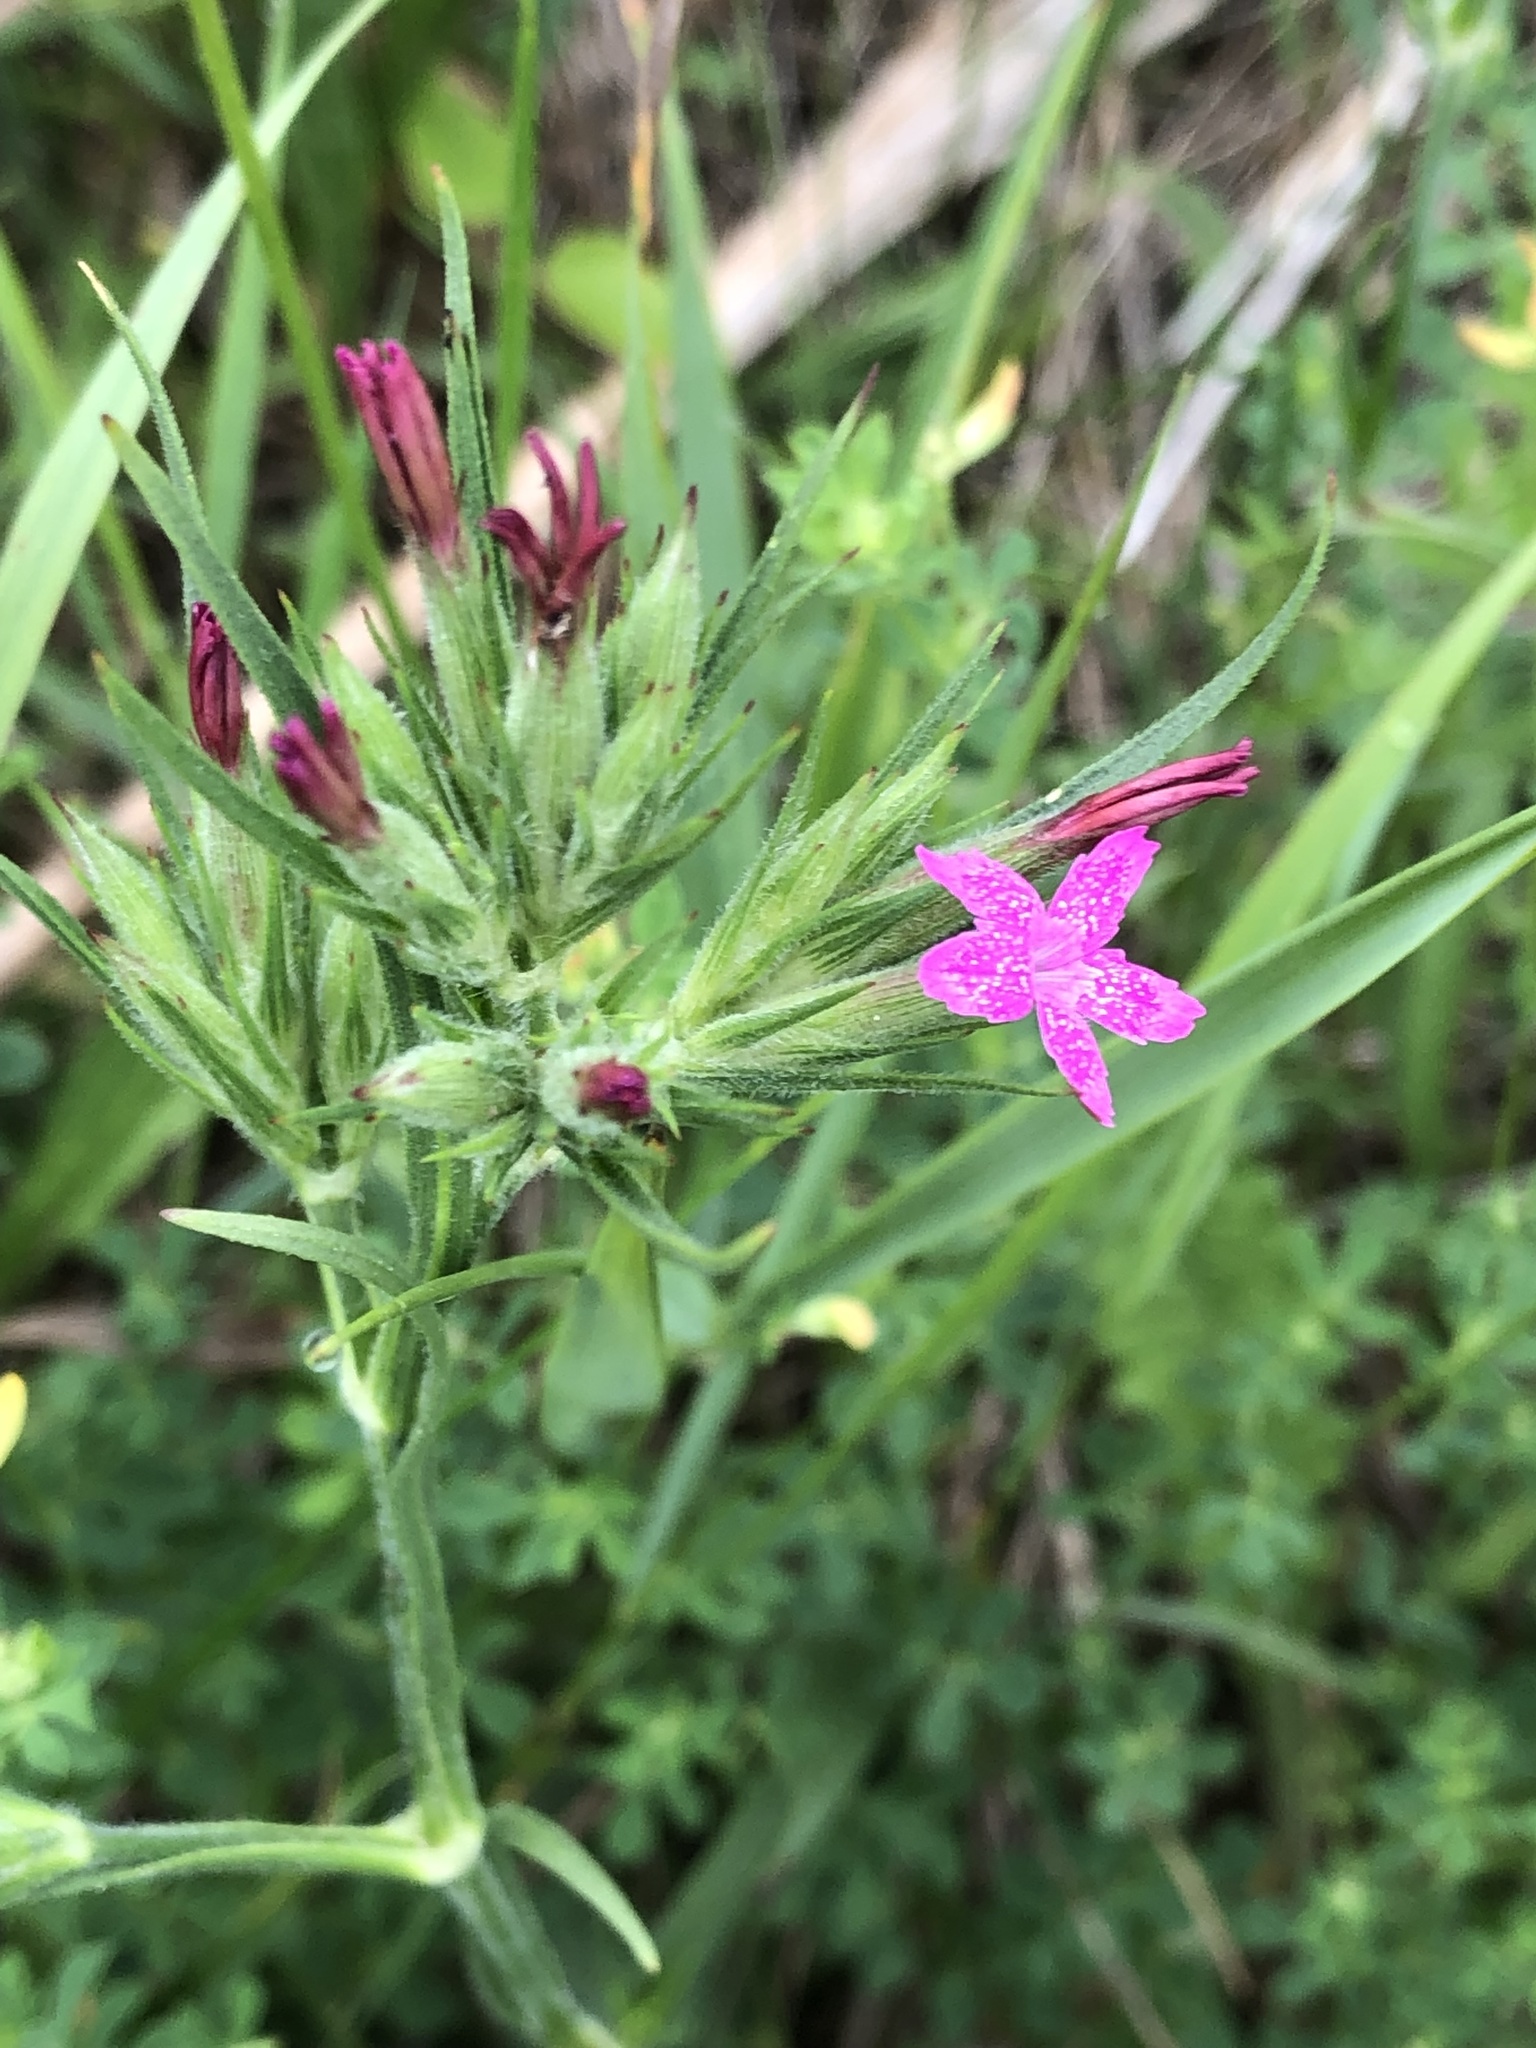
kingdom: Plantae
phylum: Tracheophyta
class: Magnoliopsida
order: Caryophyllales
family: Caryophyllaceae
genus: Dianthus
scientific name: Dianthus armeria
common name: Deptford pink
